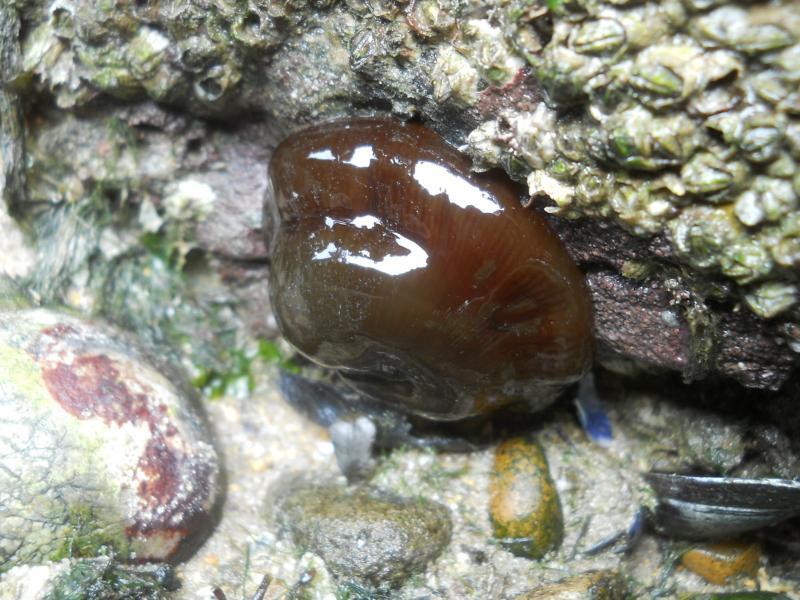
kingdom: Animalia
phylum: Cnidaria
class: Anthozoa
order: Actiniaria
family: Actiniidae
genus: Actinia
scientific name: Actinia equina
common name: Beadlet anemone
